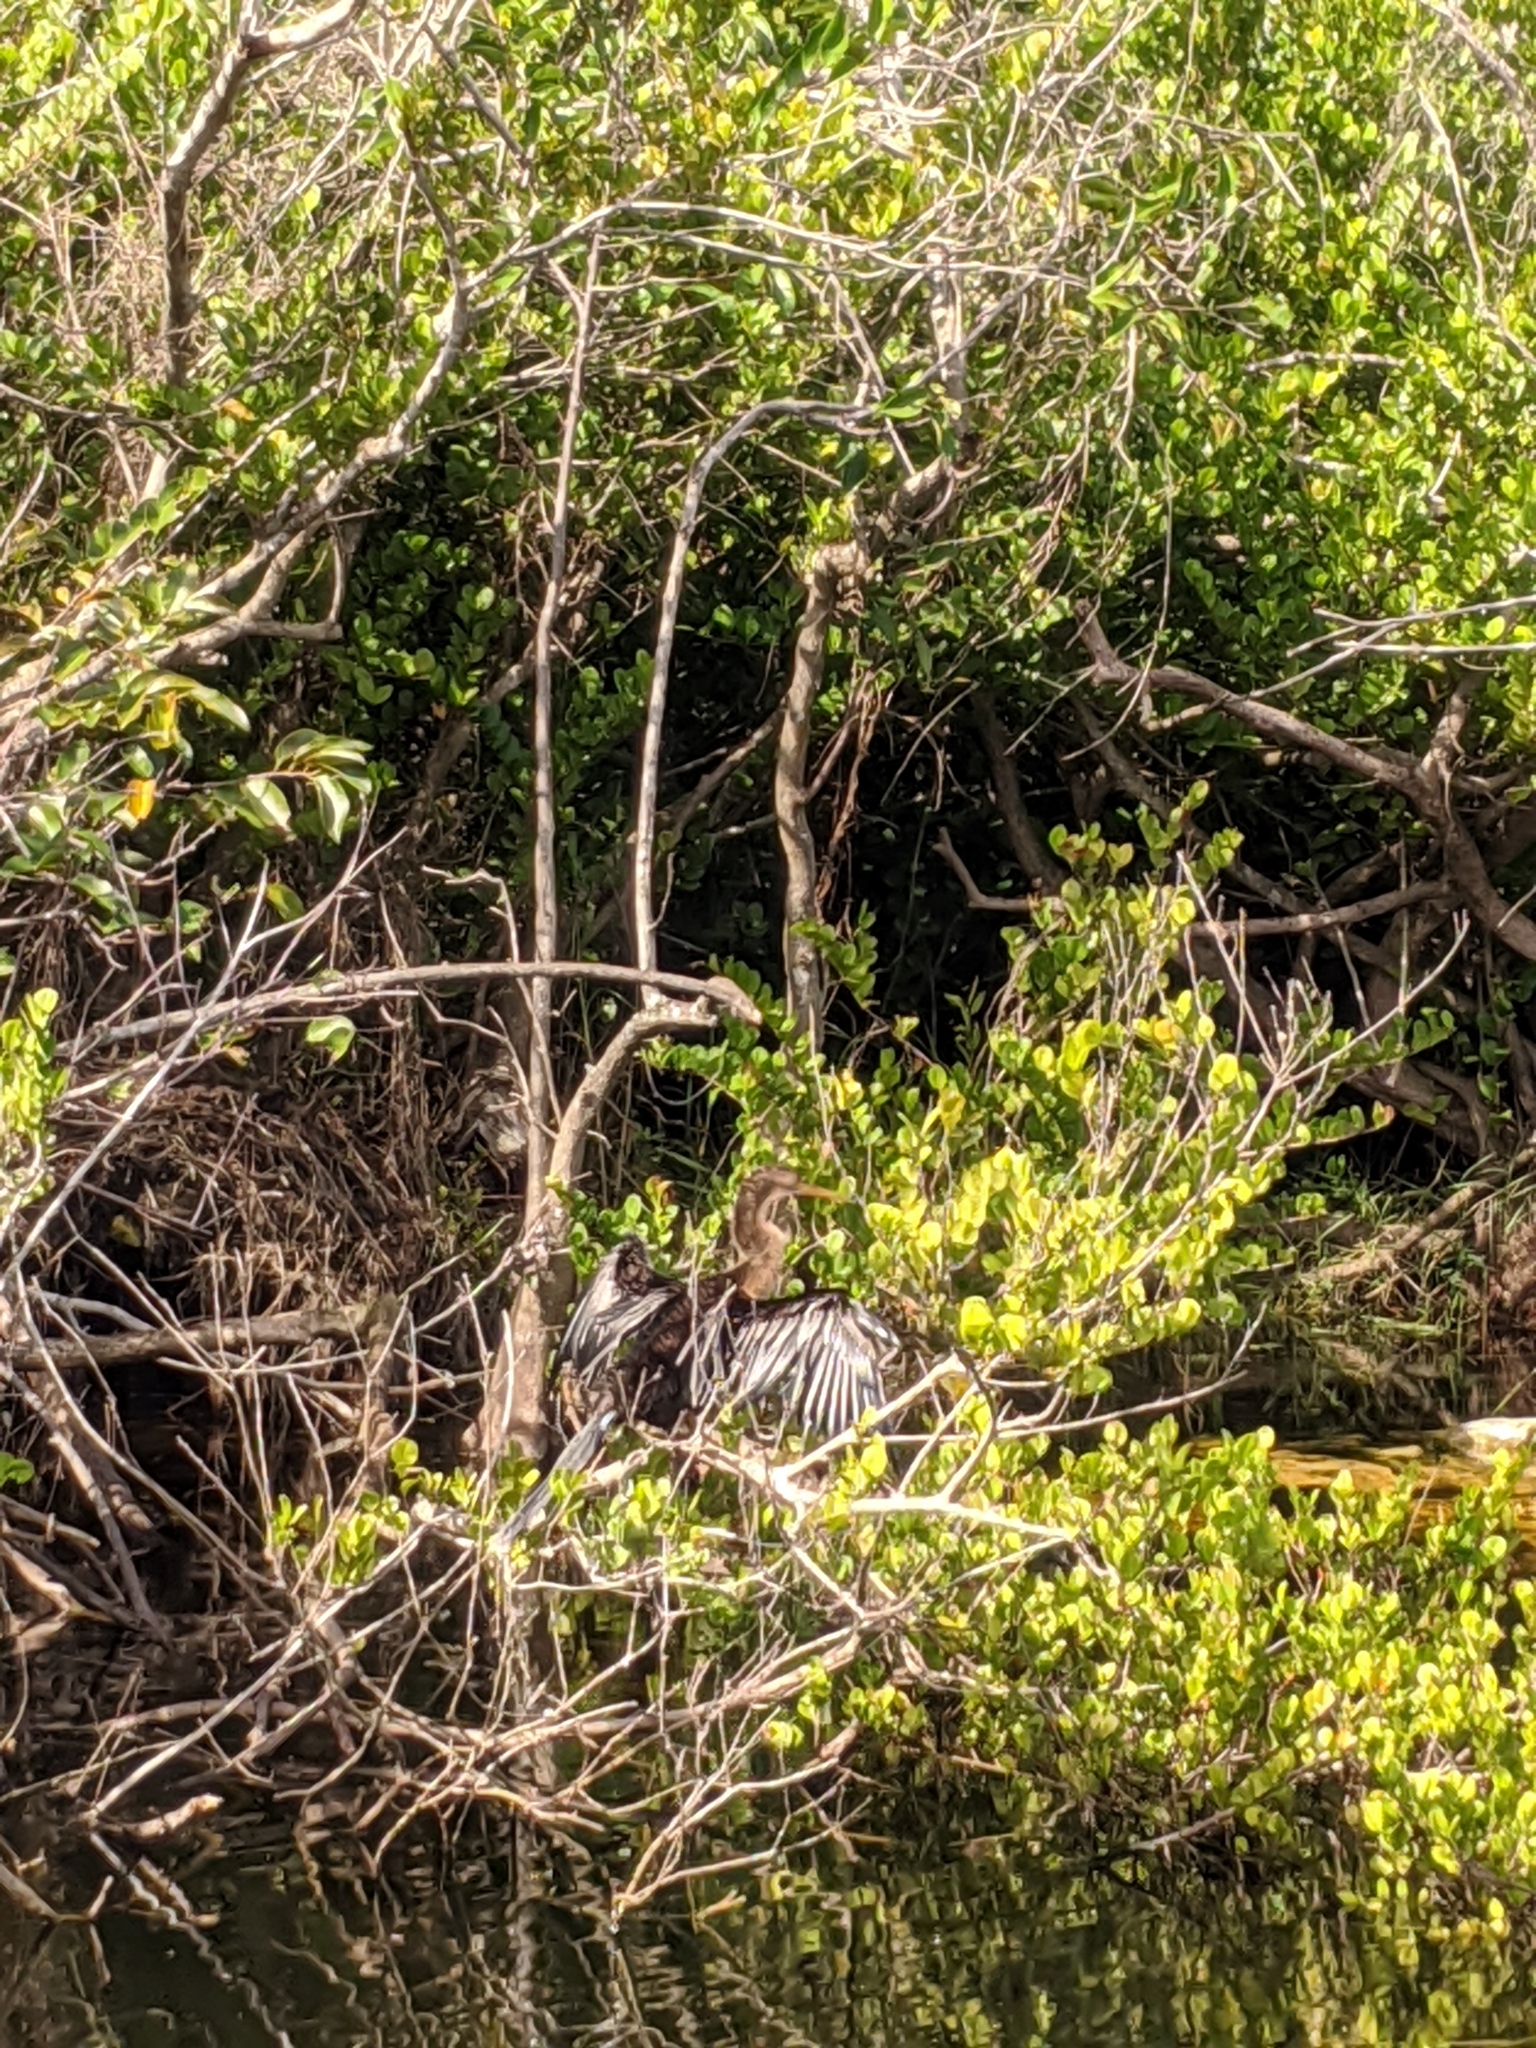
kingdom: Animalia
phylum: Chordata
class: Aves
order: Suliformes
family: Anhingidae
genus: Anhinga
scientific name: Anhinga anhinga
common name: Anhinga
